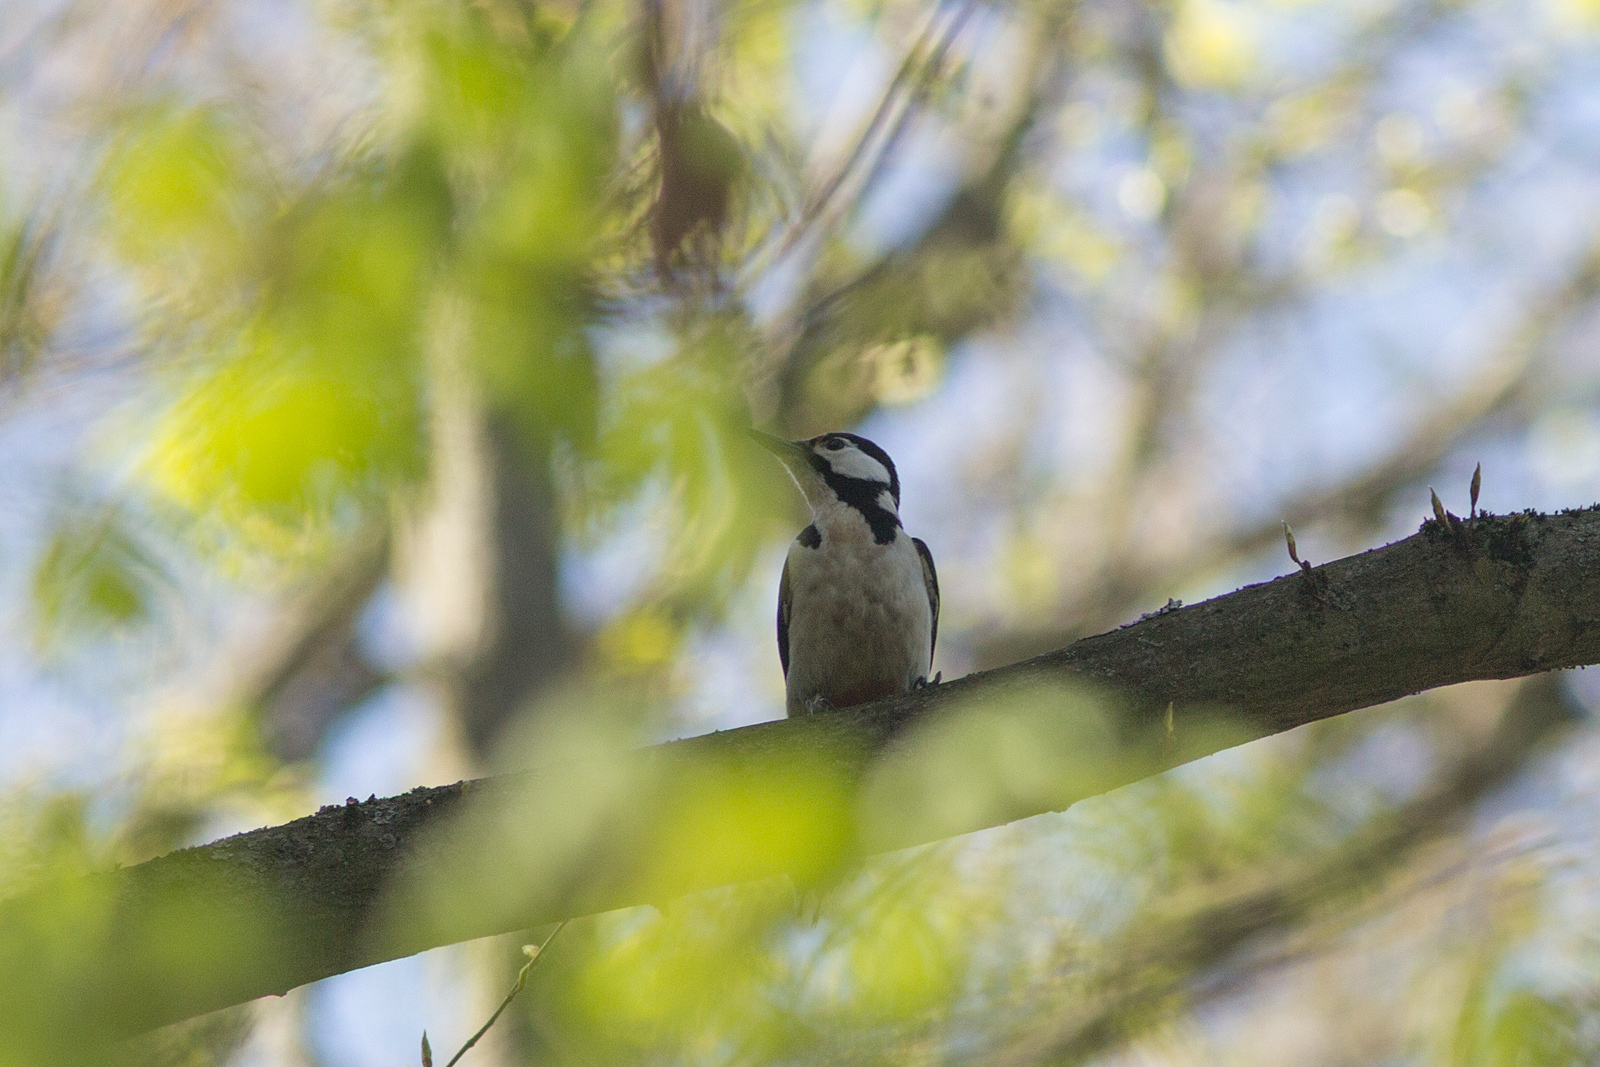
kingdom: Animalia
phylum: Chordata
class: Aves
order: Piciformes
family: Picidae
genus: Dendrocopos
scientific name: Dendrocopos major
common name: Great spotted woodpecker
